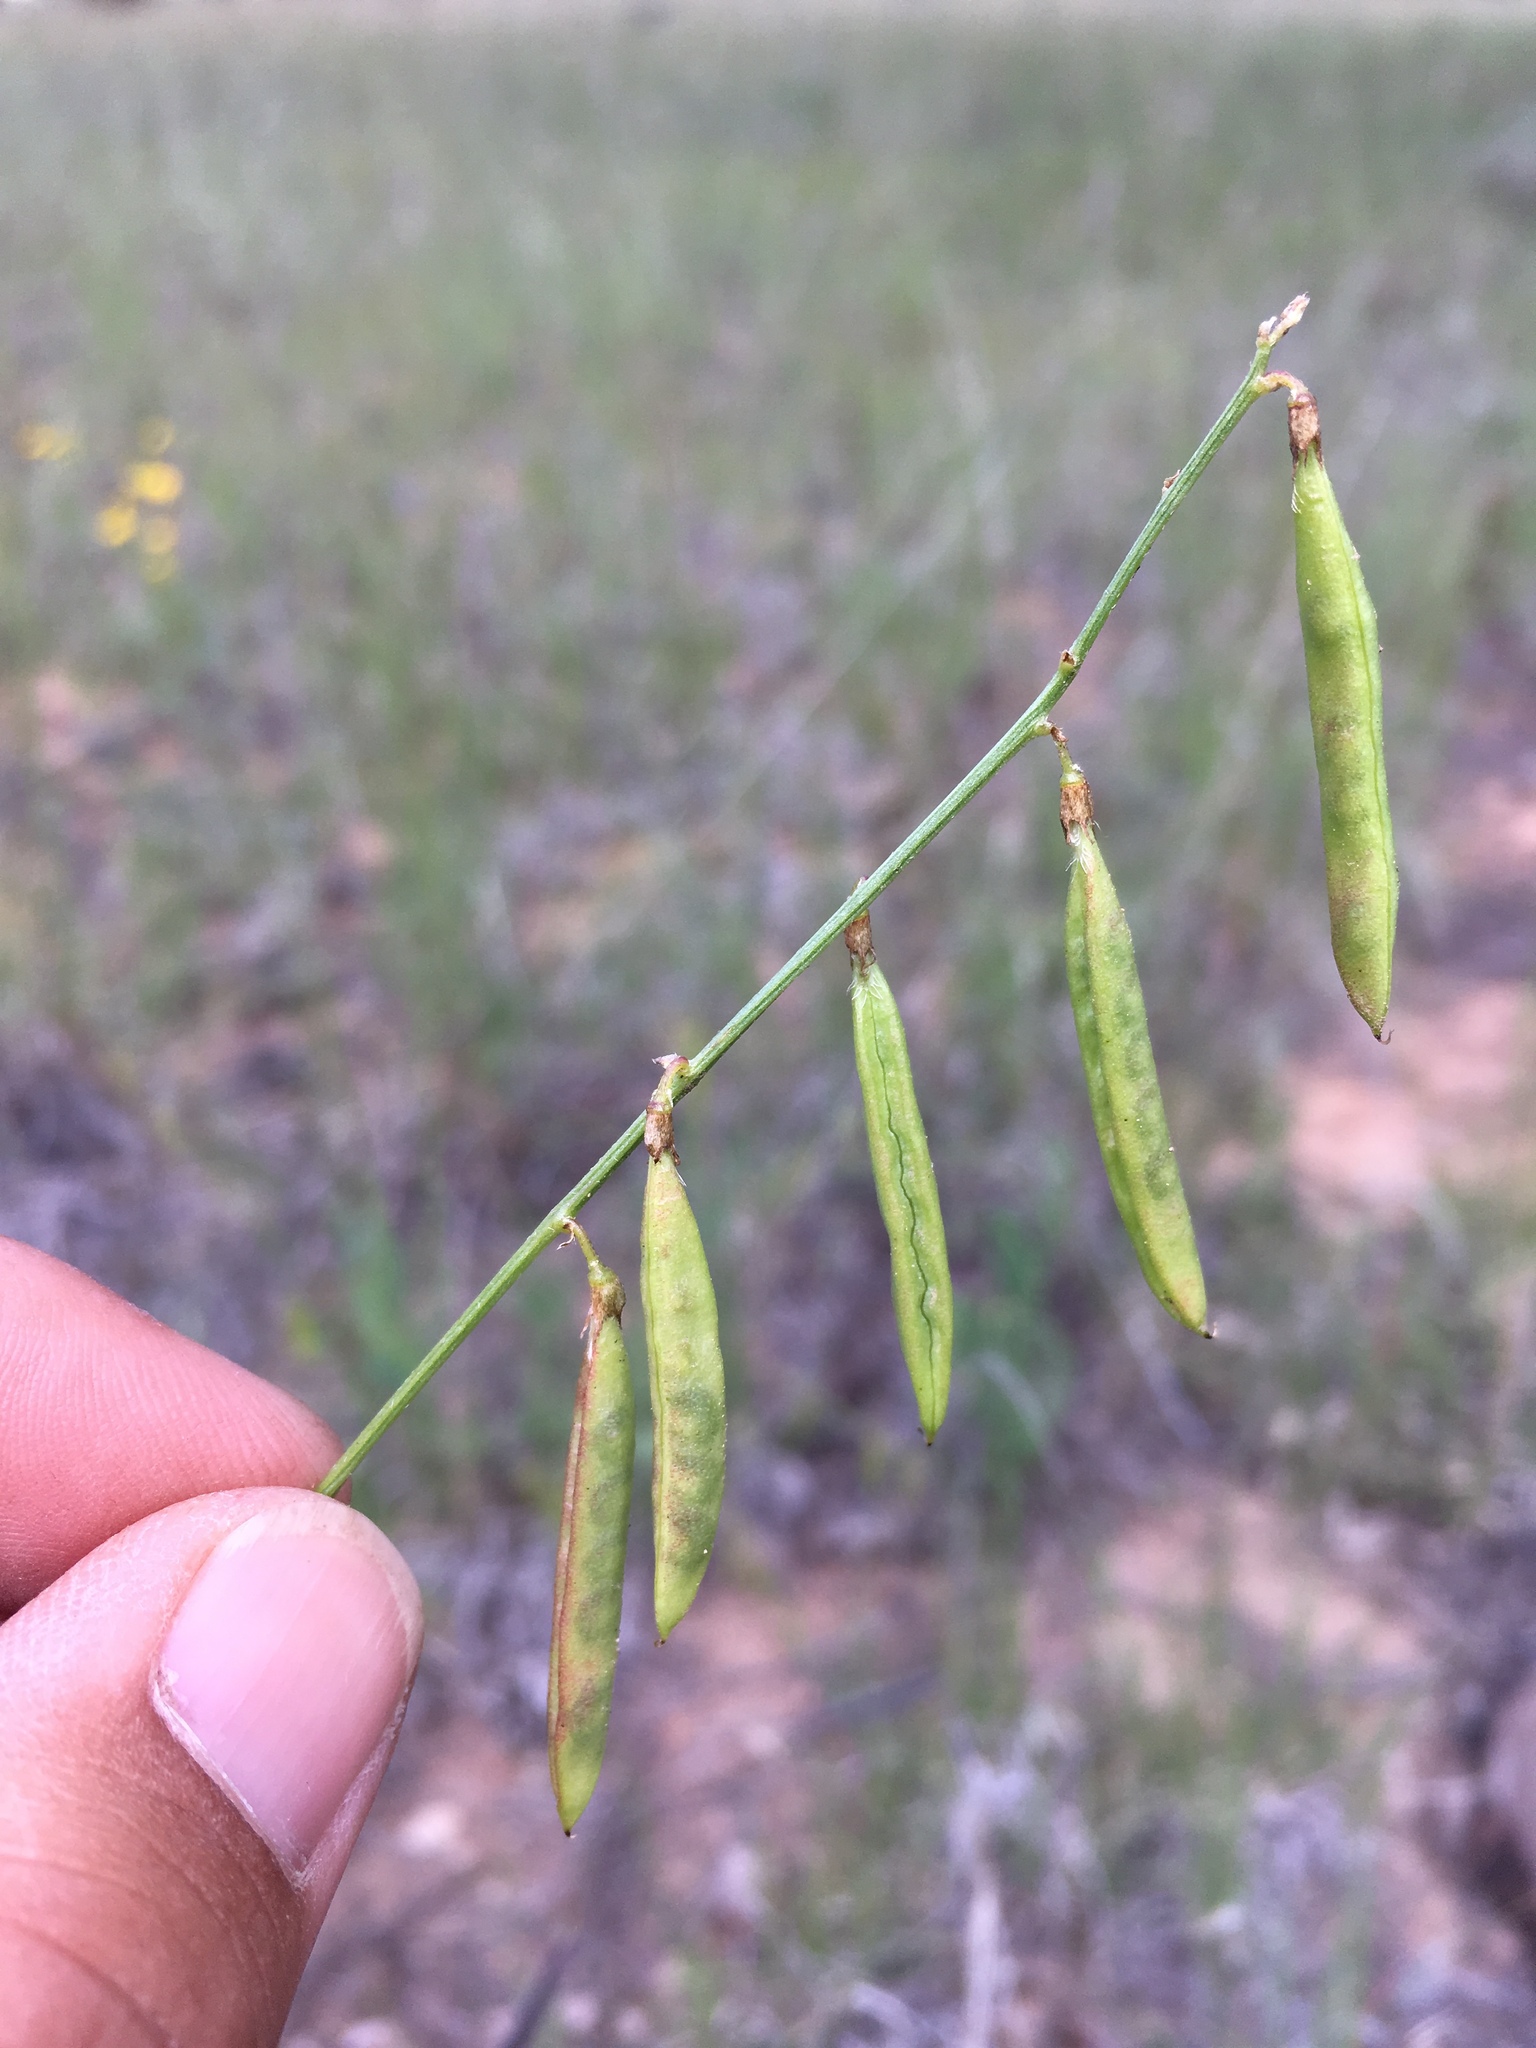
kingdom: Plantae
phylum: Tracheophyta
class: Magnoliopsida
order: Fabales
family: Fabaceae
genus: Astragalus
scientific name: Astragalus egglestonii
